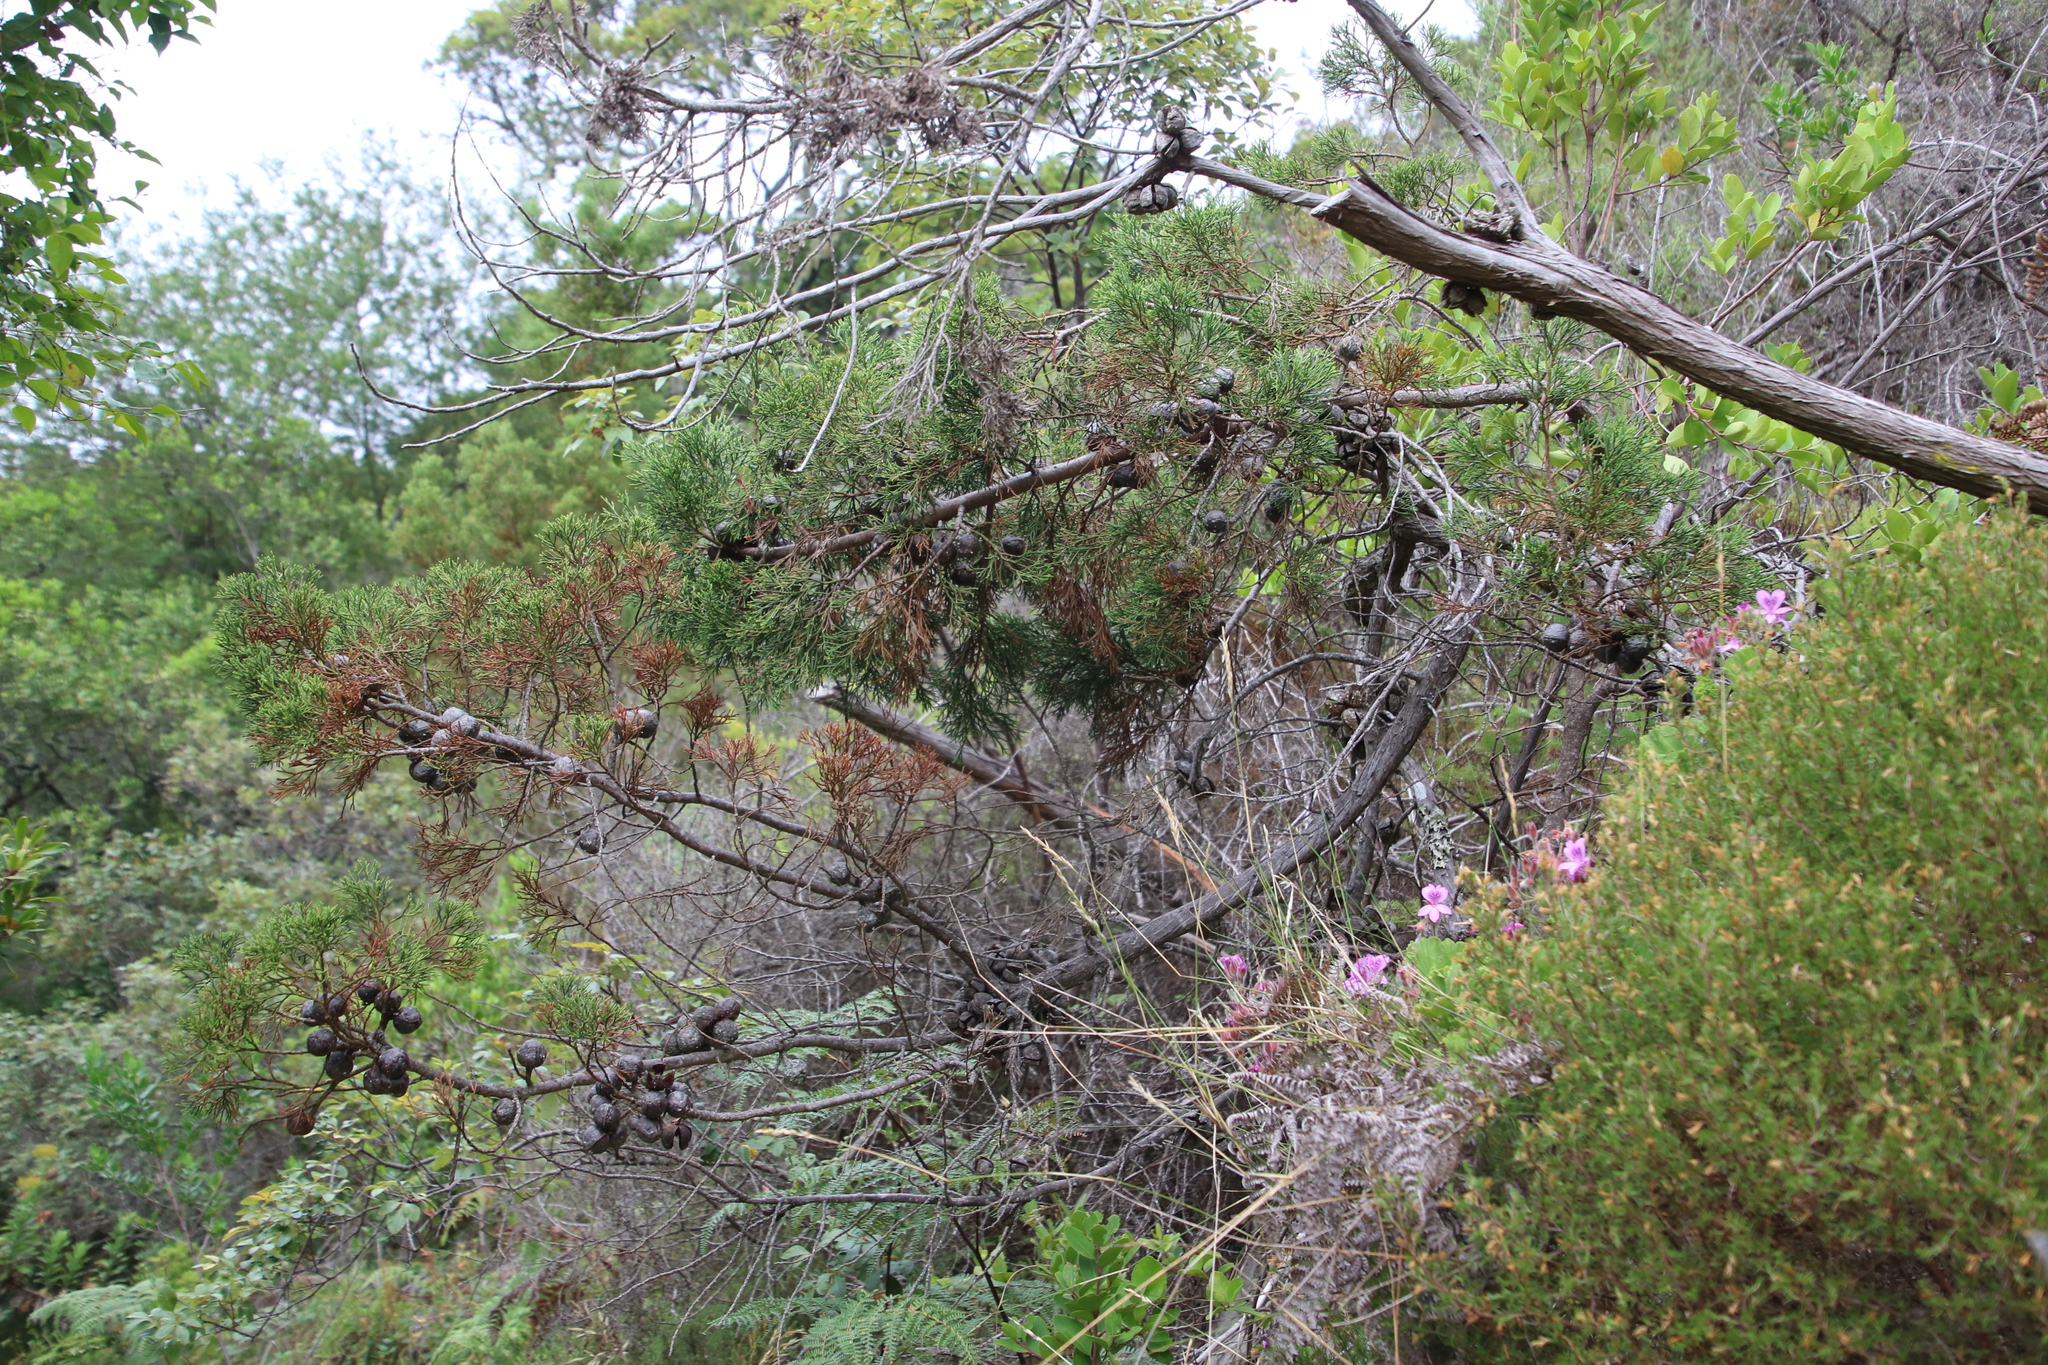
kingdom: Plantae
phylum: Tracheophyta
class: Pinopsida
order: Pinales
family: Cupressaceae
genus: Widdringtonia
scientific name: Widdringtonia nodiflora
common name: Cape cypress
